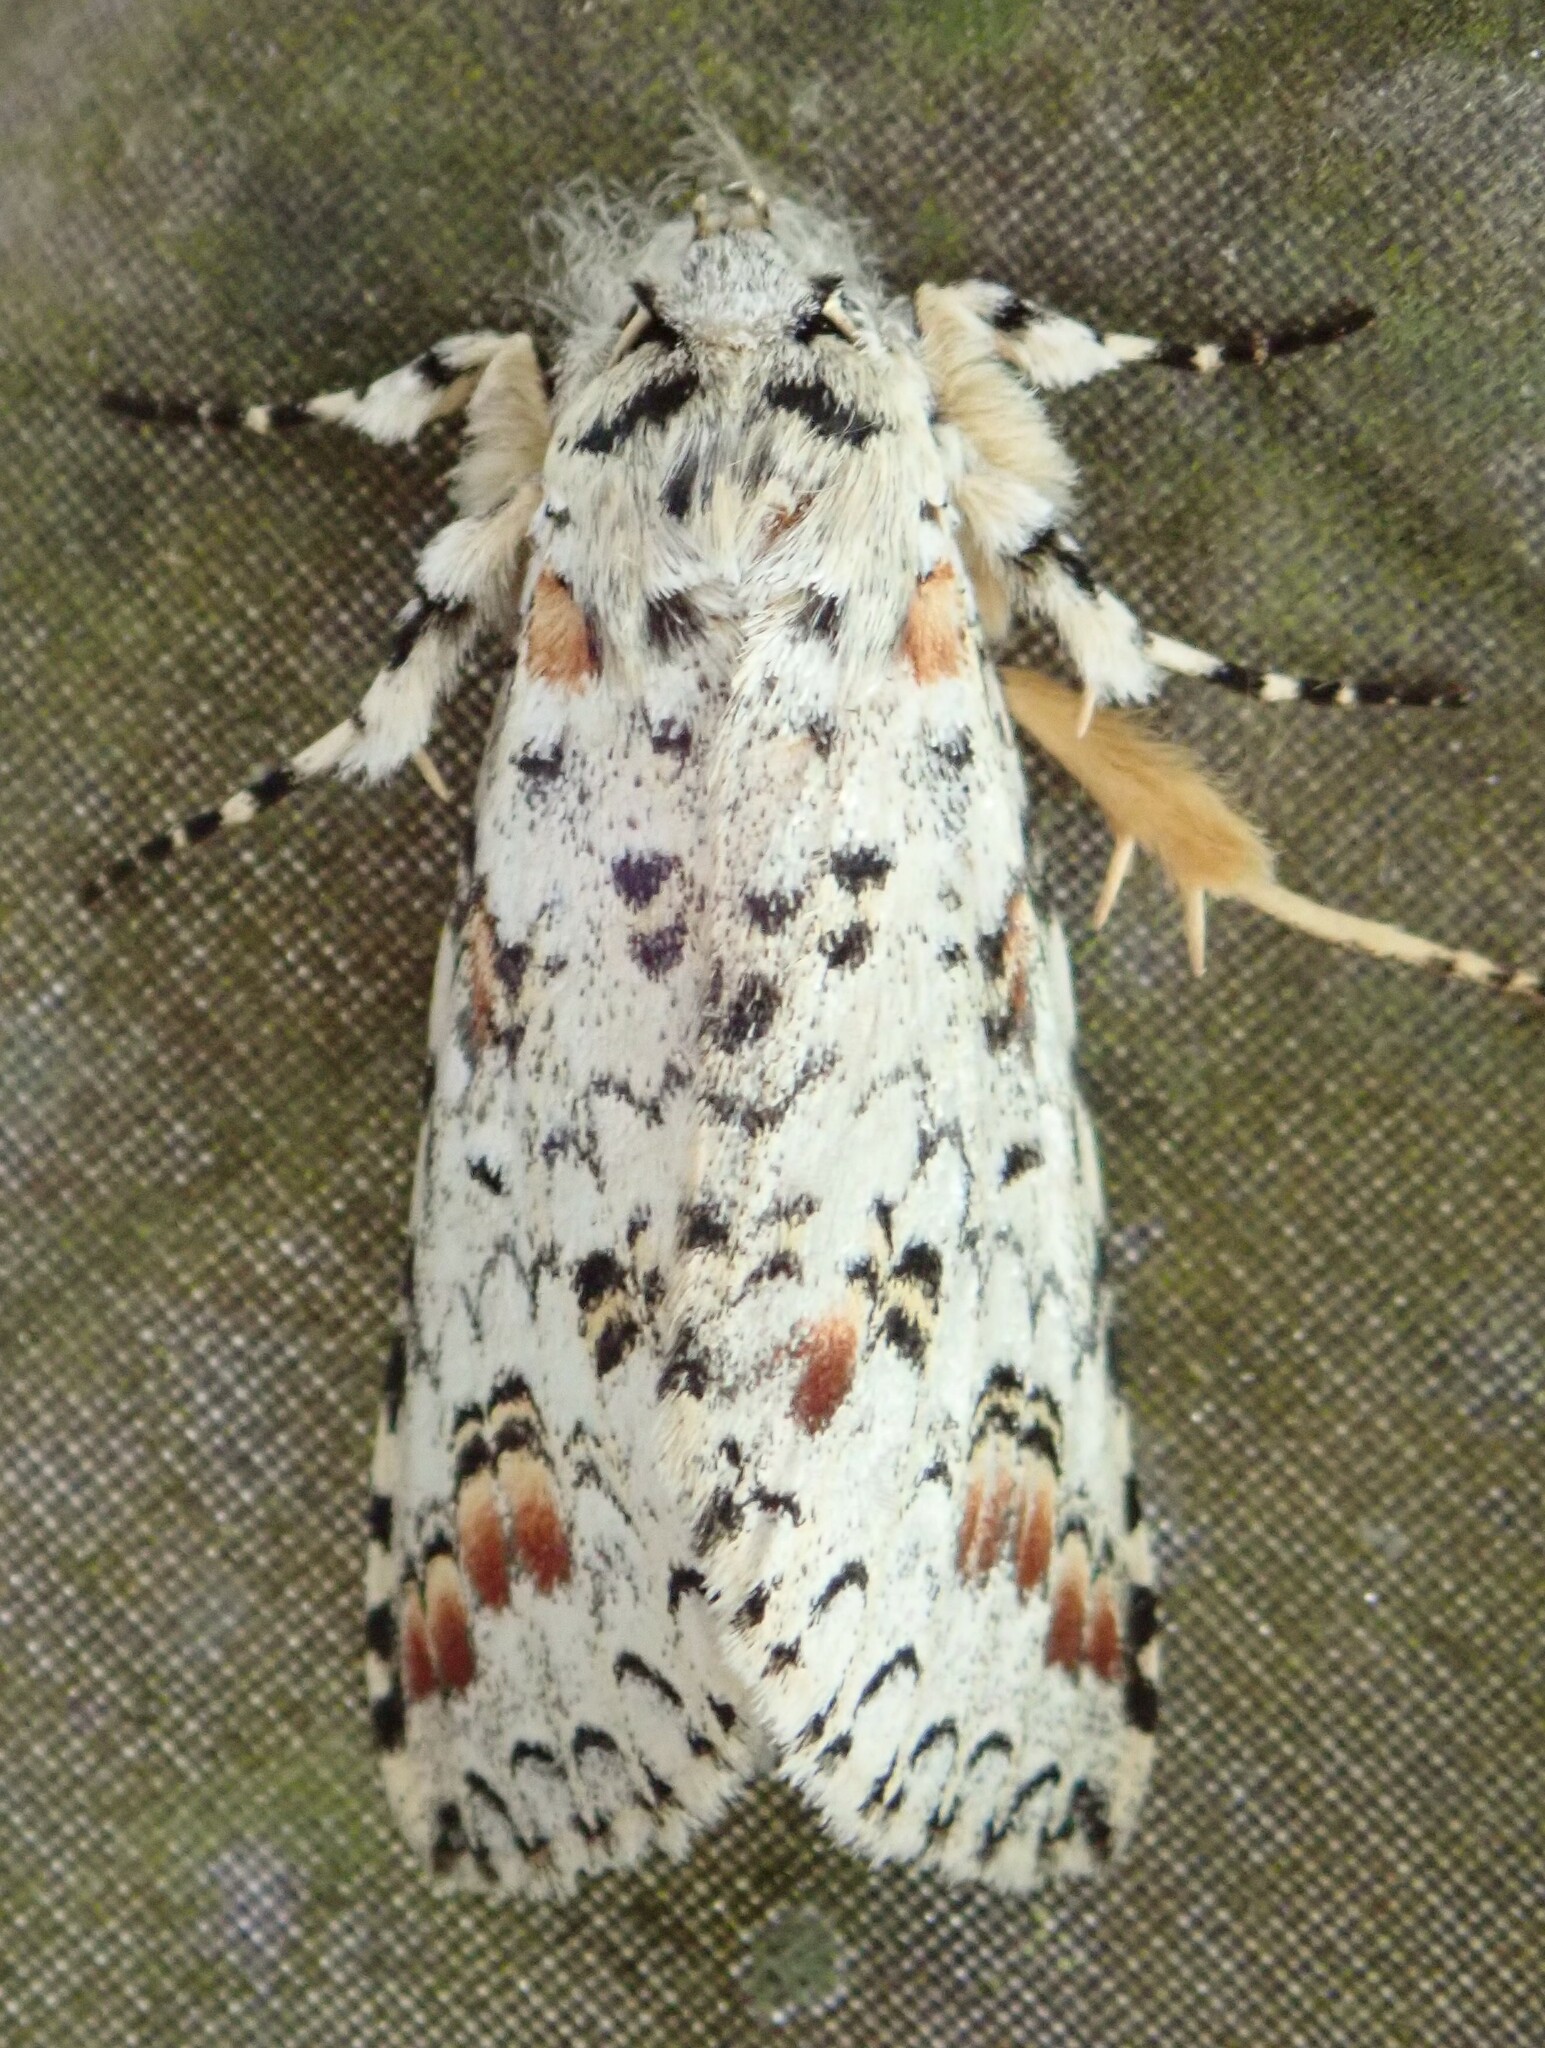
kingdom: Animalia
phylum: Arthropoda
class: Insecta
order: Lepidoptera
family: Notodontidae
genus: Meragisa
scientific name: Meragisa nicolasi
